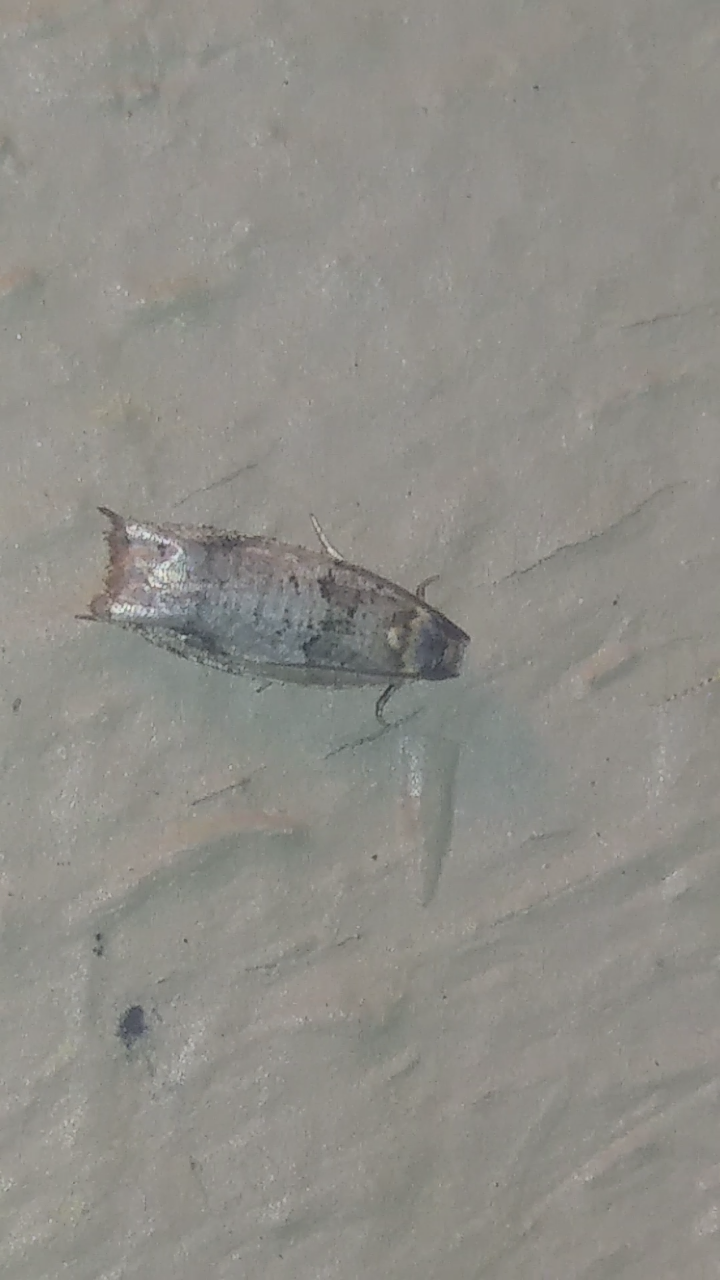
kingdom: Animalia
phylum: Arthropoda
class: Insecta
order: Lepidoptera
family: Tortricidae
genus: Rhopobota
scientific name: Rhopobota dietziana
